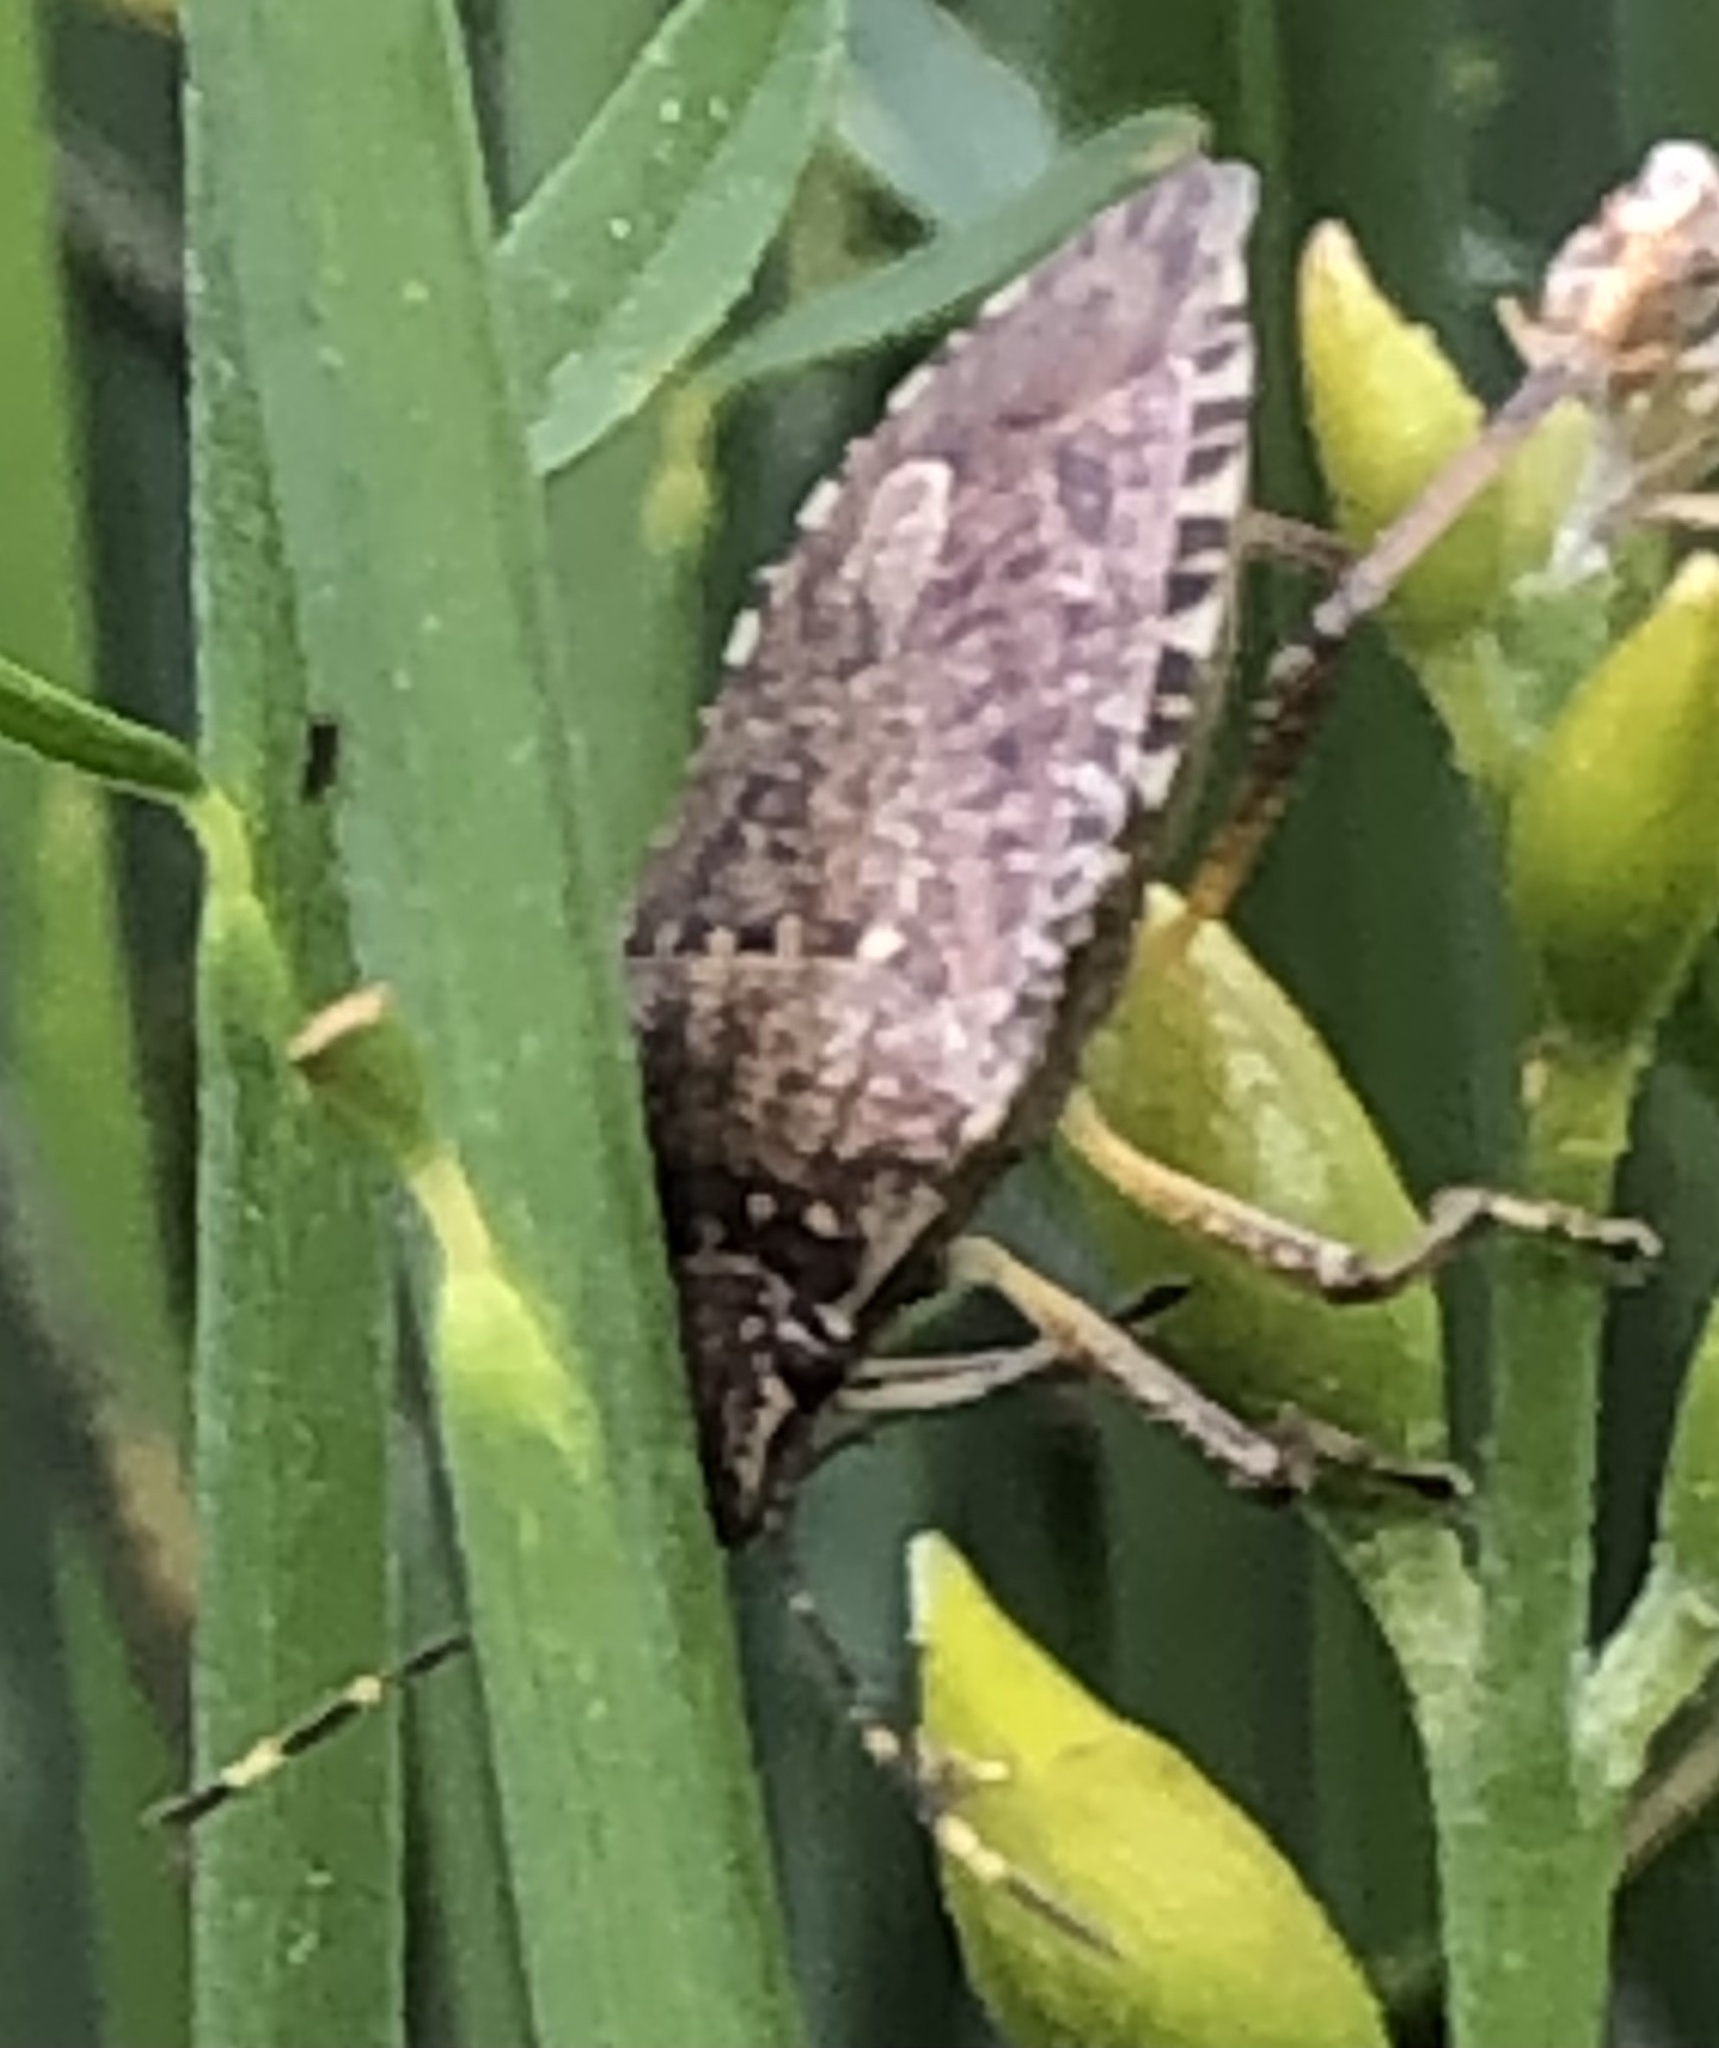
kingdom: Animalia
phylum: Arthropoda
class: Insecta
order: Hemiptera
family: Pentatomidae
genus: Halyomorpha
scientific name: Halyomorpha halys
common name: Brown marmorated stink bug
